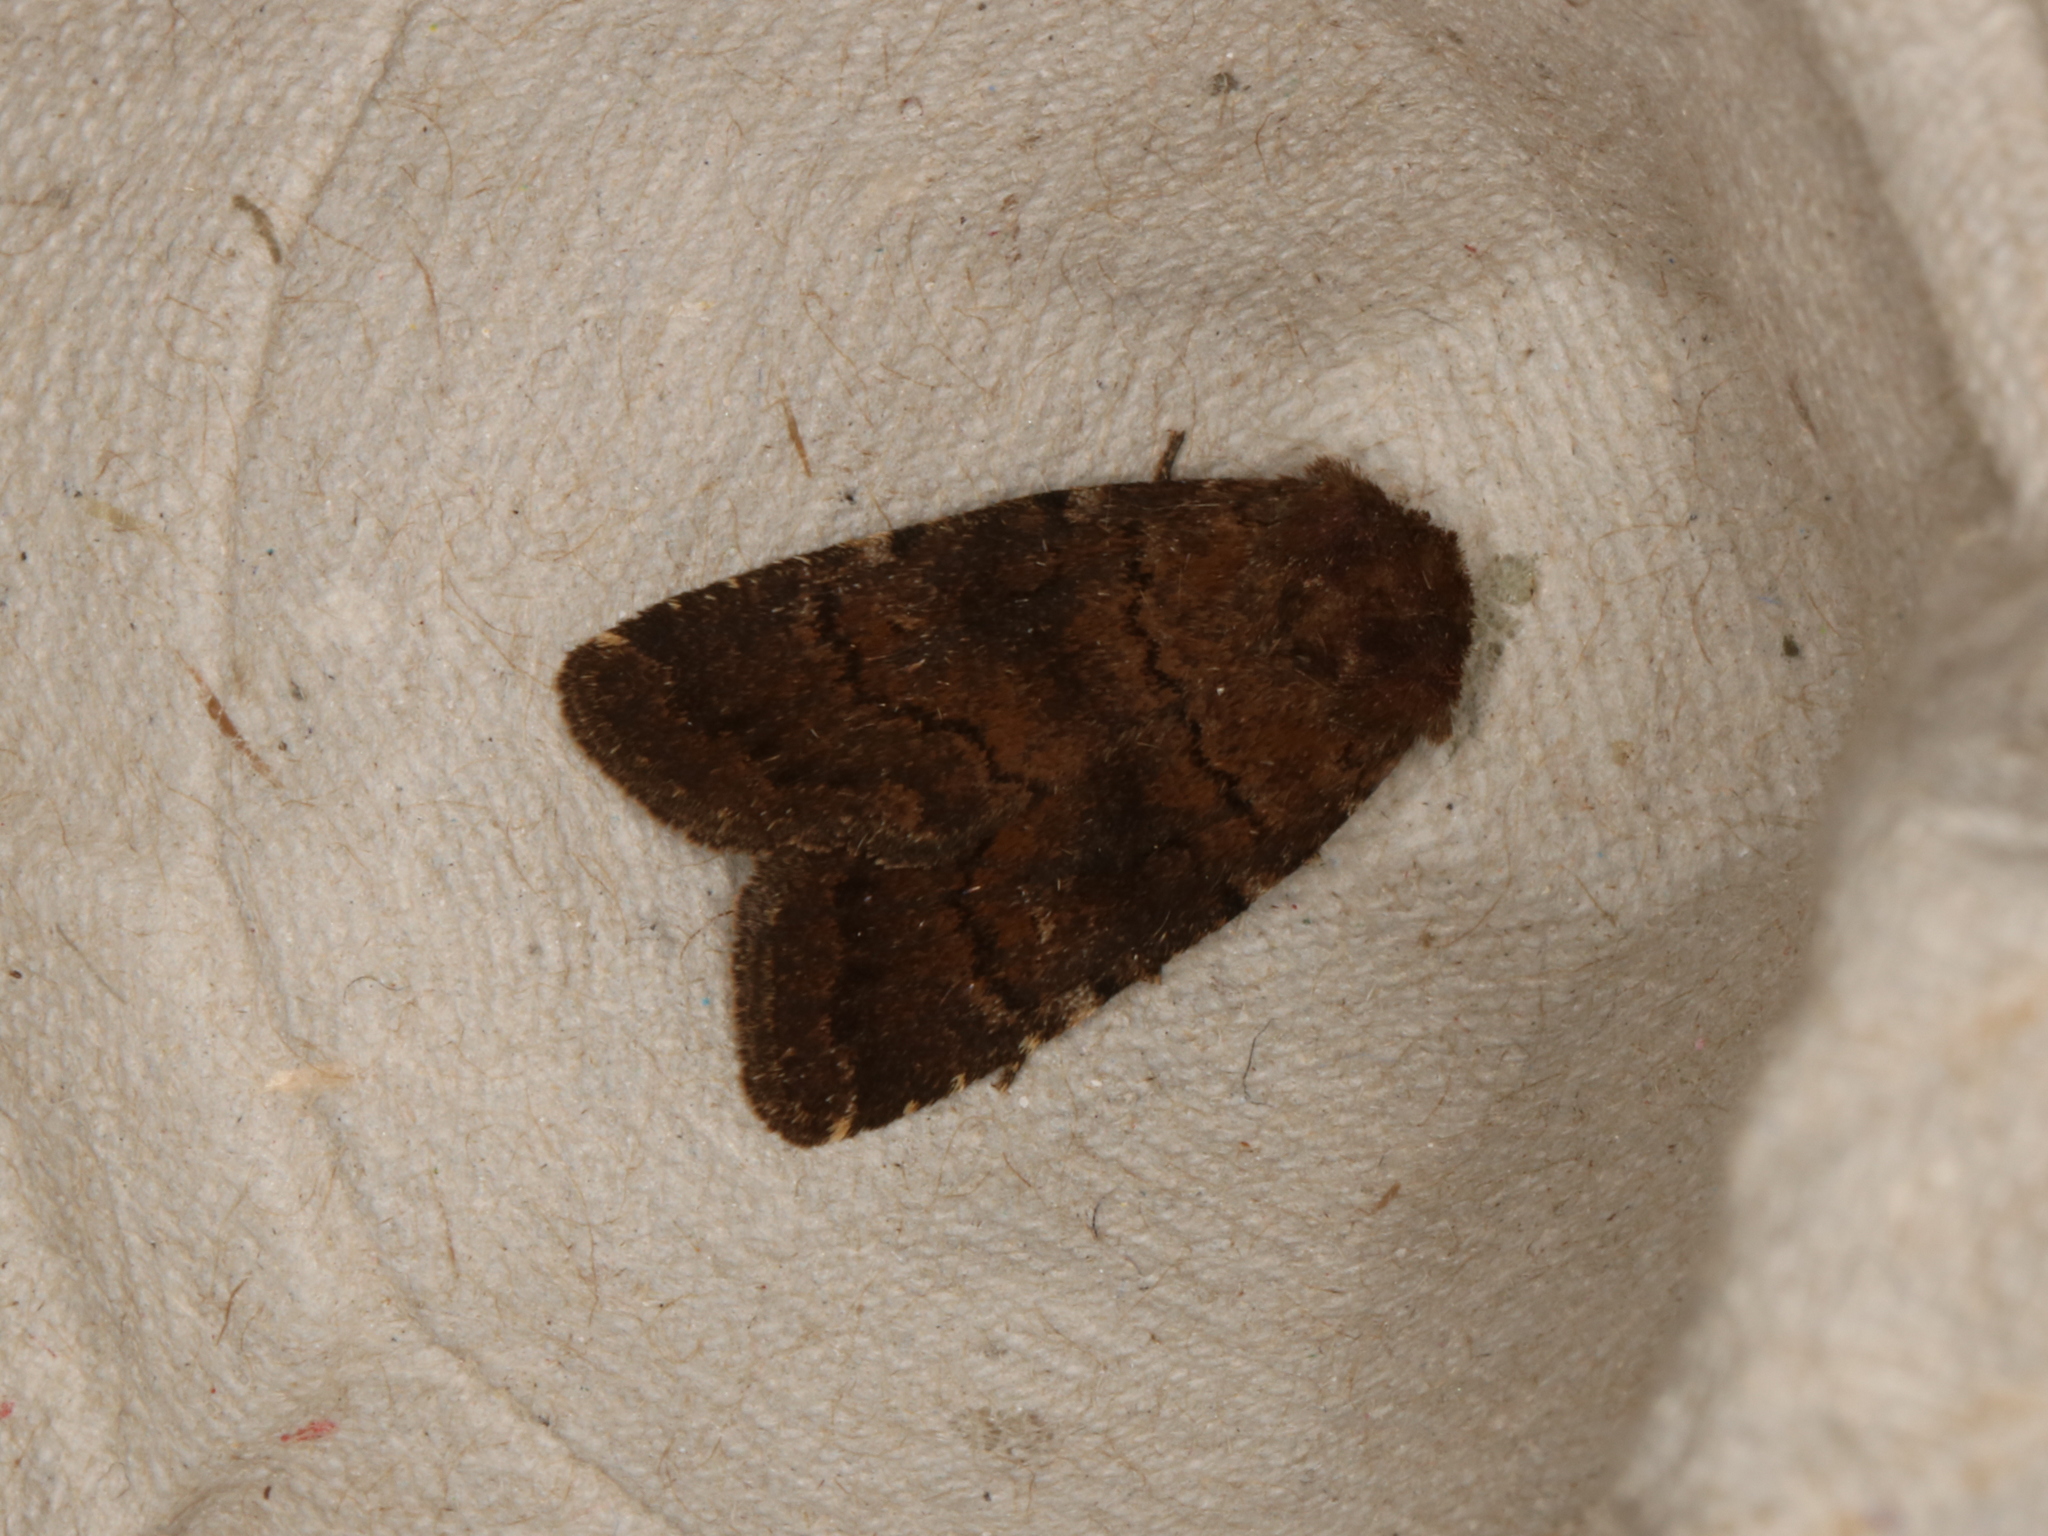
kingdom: Animalia
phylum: Arthropoda
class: Insecta
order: Lepidoptera
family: Noctuidae
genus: Charanyca
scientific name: Charanyca ferruginea
